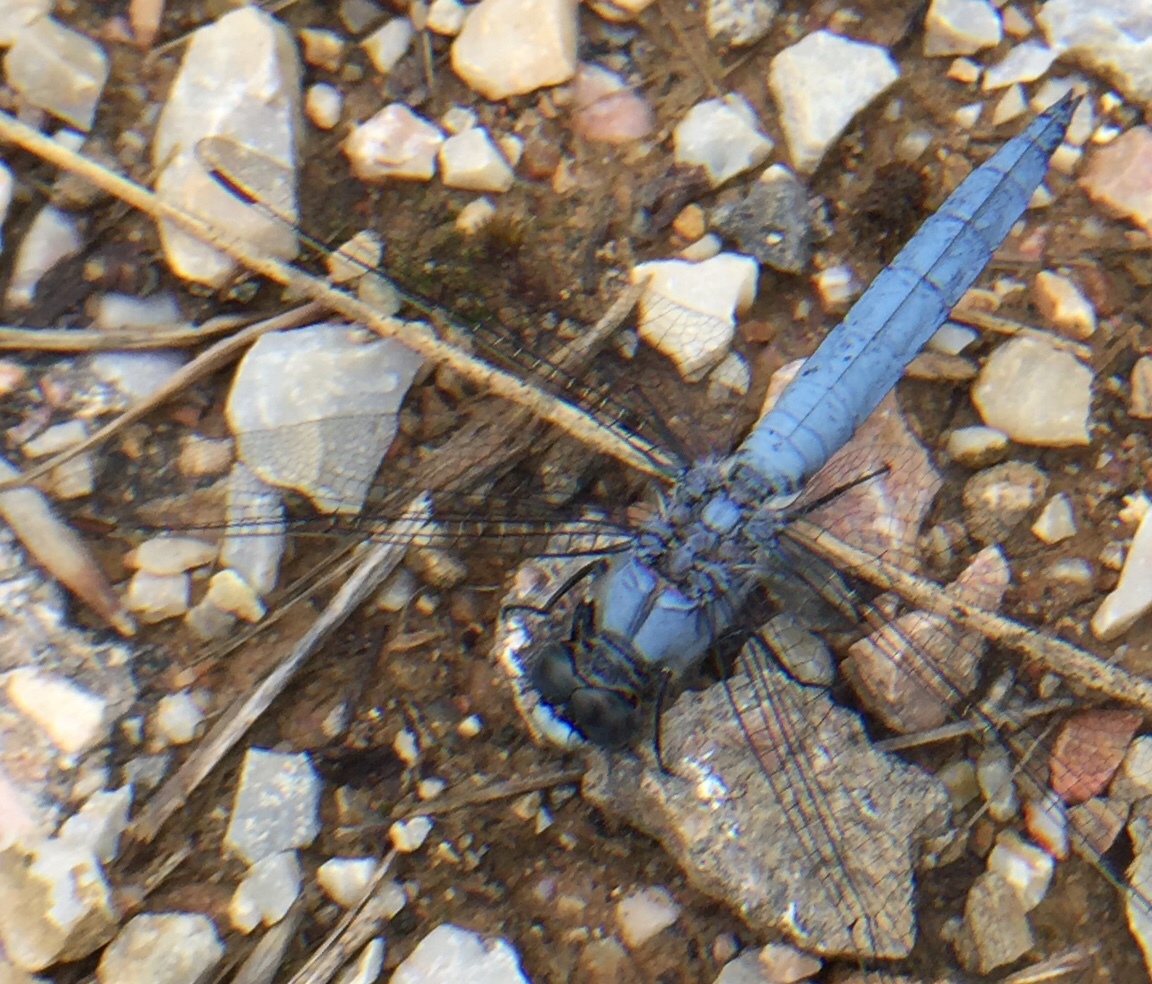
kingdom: Animalia
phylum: Arthropoda
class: Insecta
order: Odonata
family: Libellulidae
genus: Orthetrum
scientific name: Orthetrum brunneum
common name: Southern skimmer
